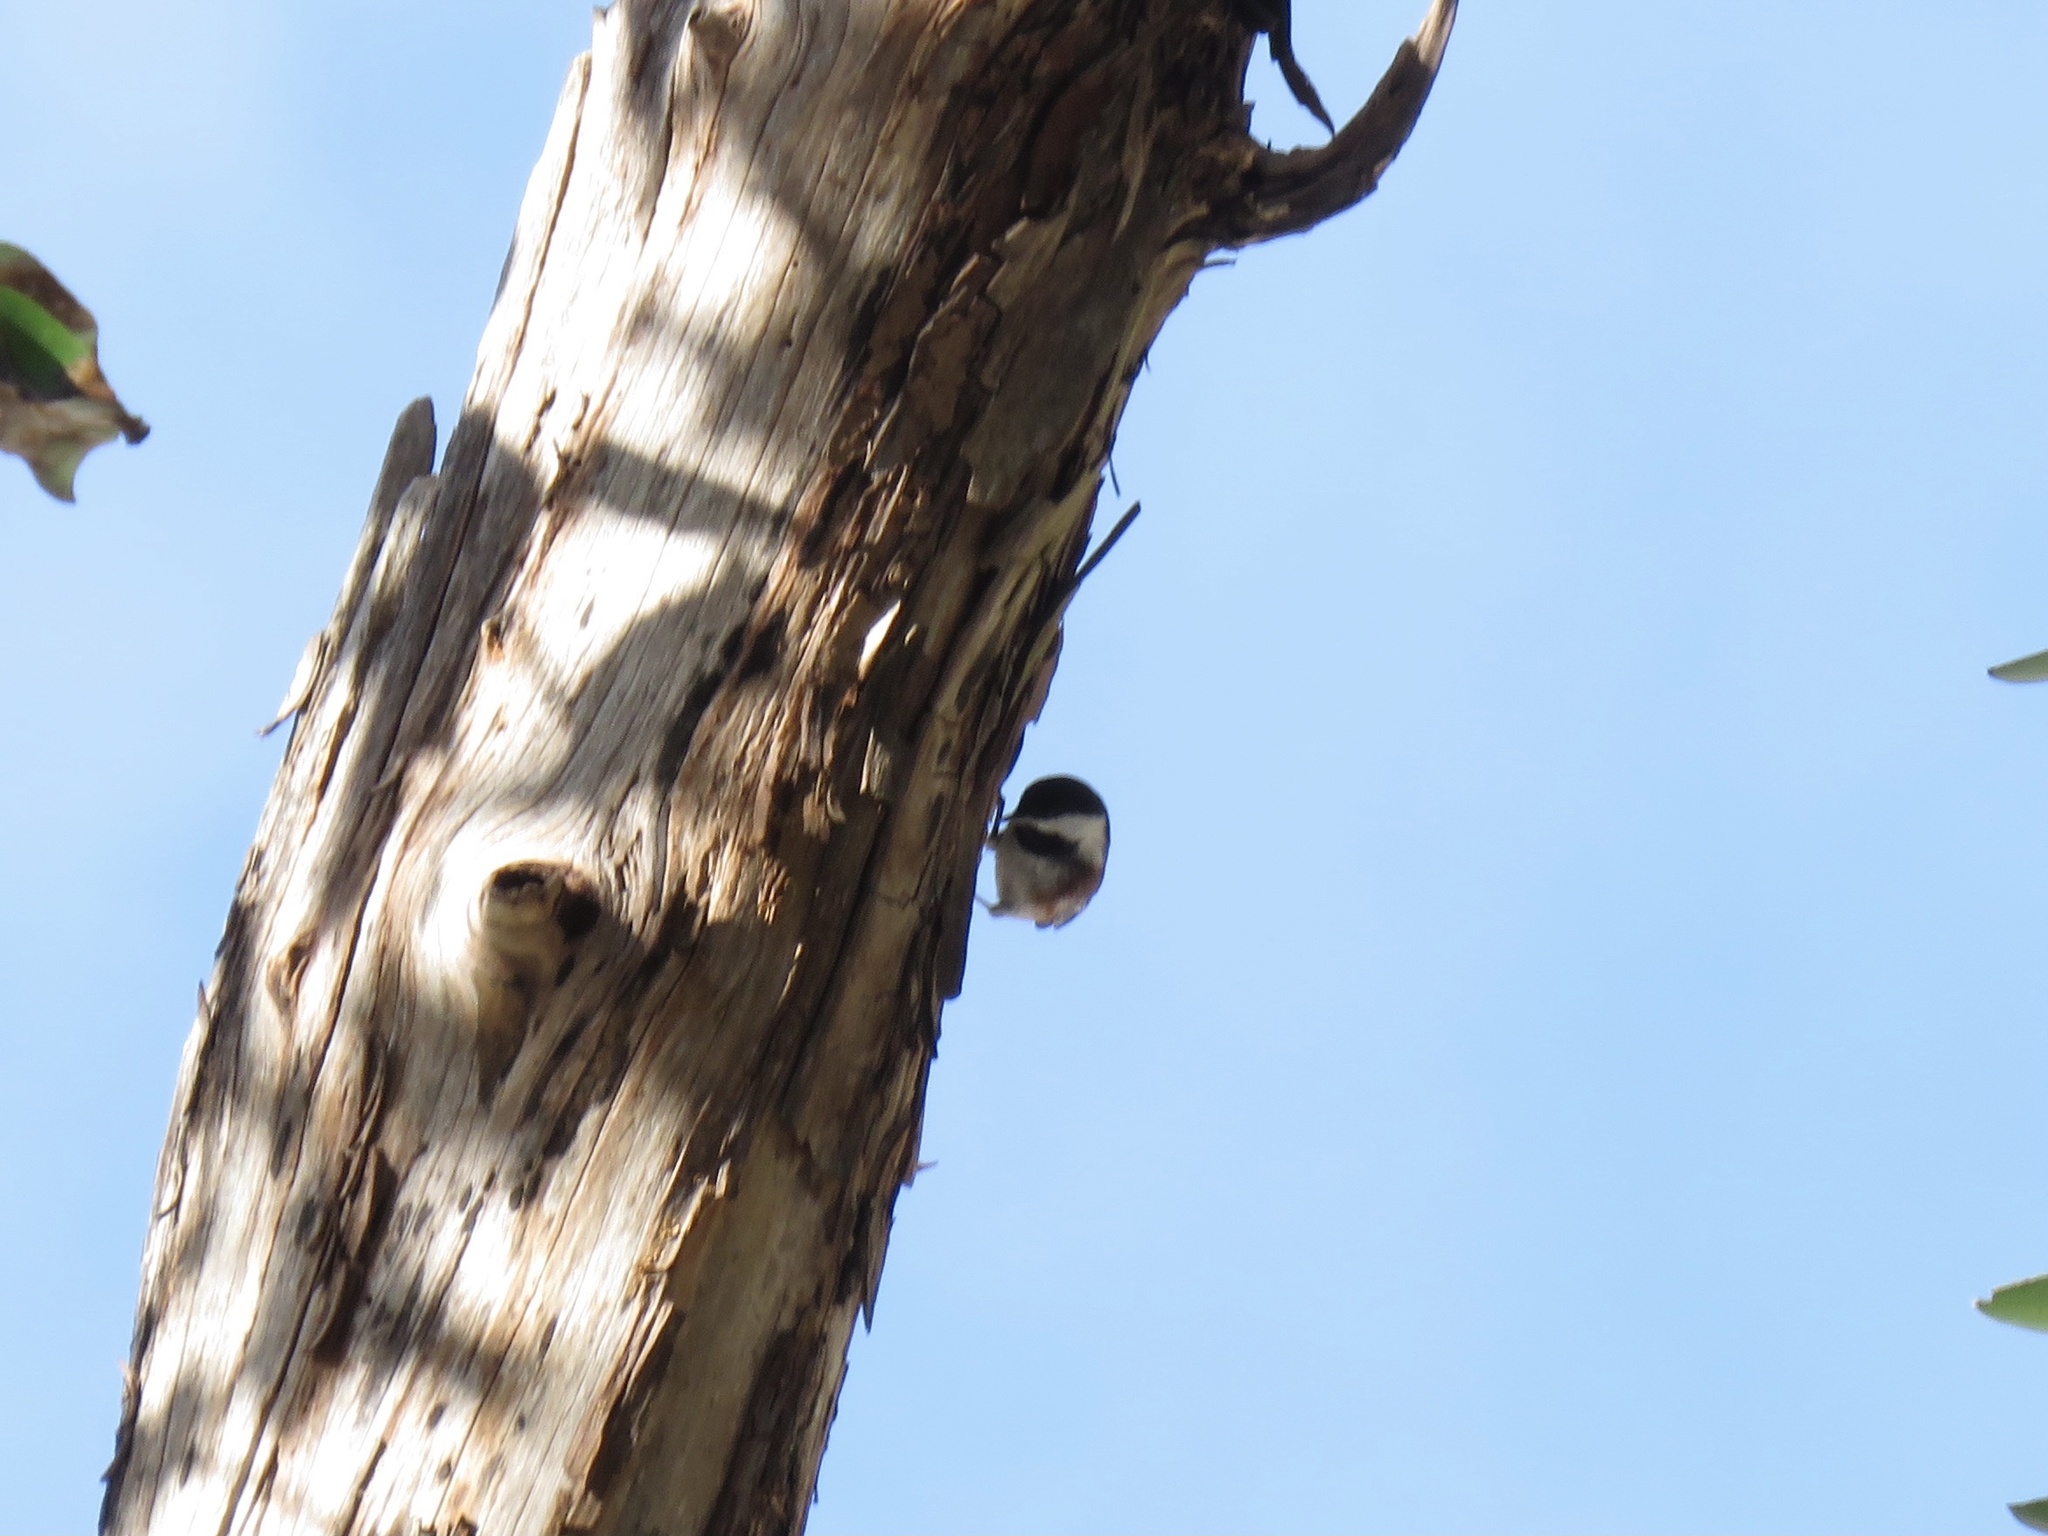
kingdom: Animalia
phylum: Chordata
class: Aves
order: Passeriformes
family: Paridae
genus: Poecile
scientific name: Poecile rufescens
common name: Chestnut-backed chickadee
